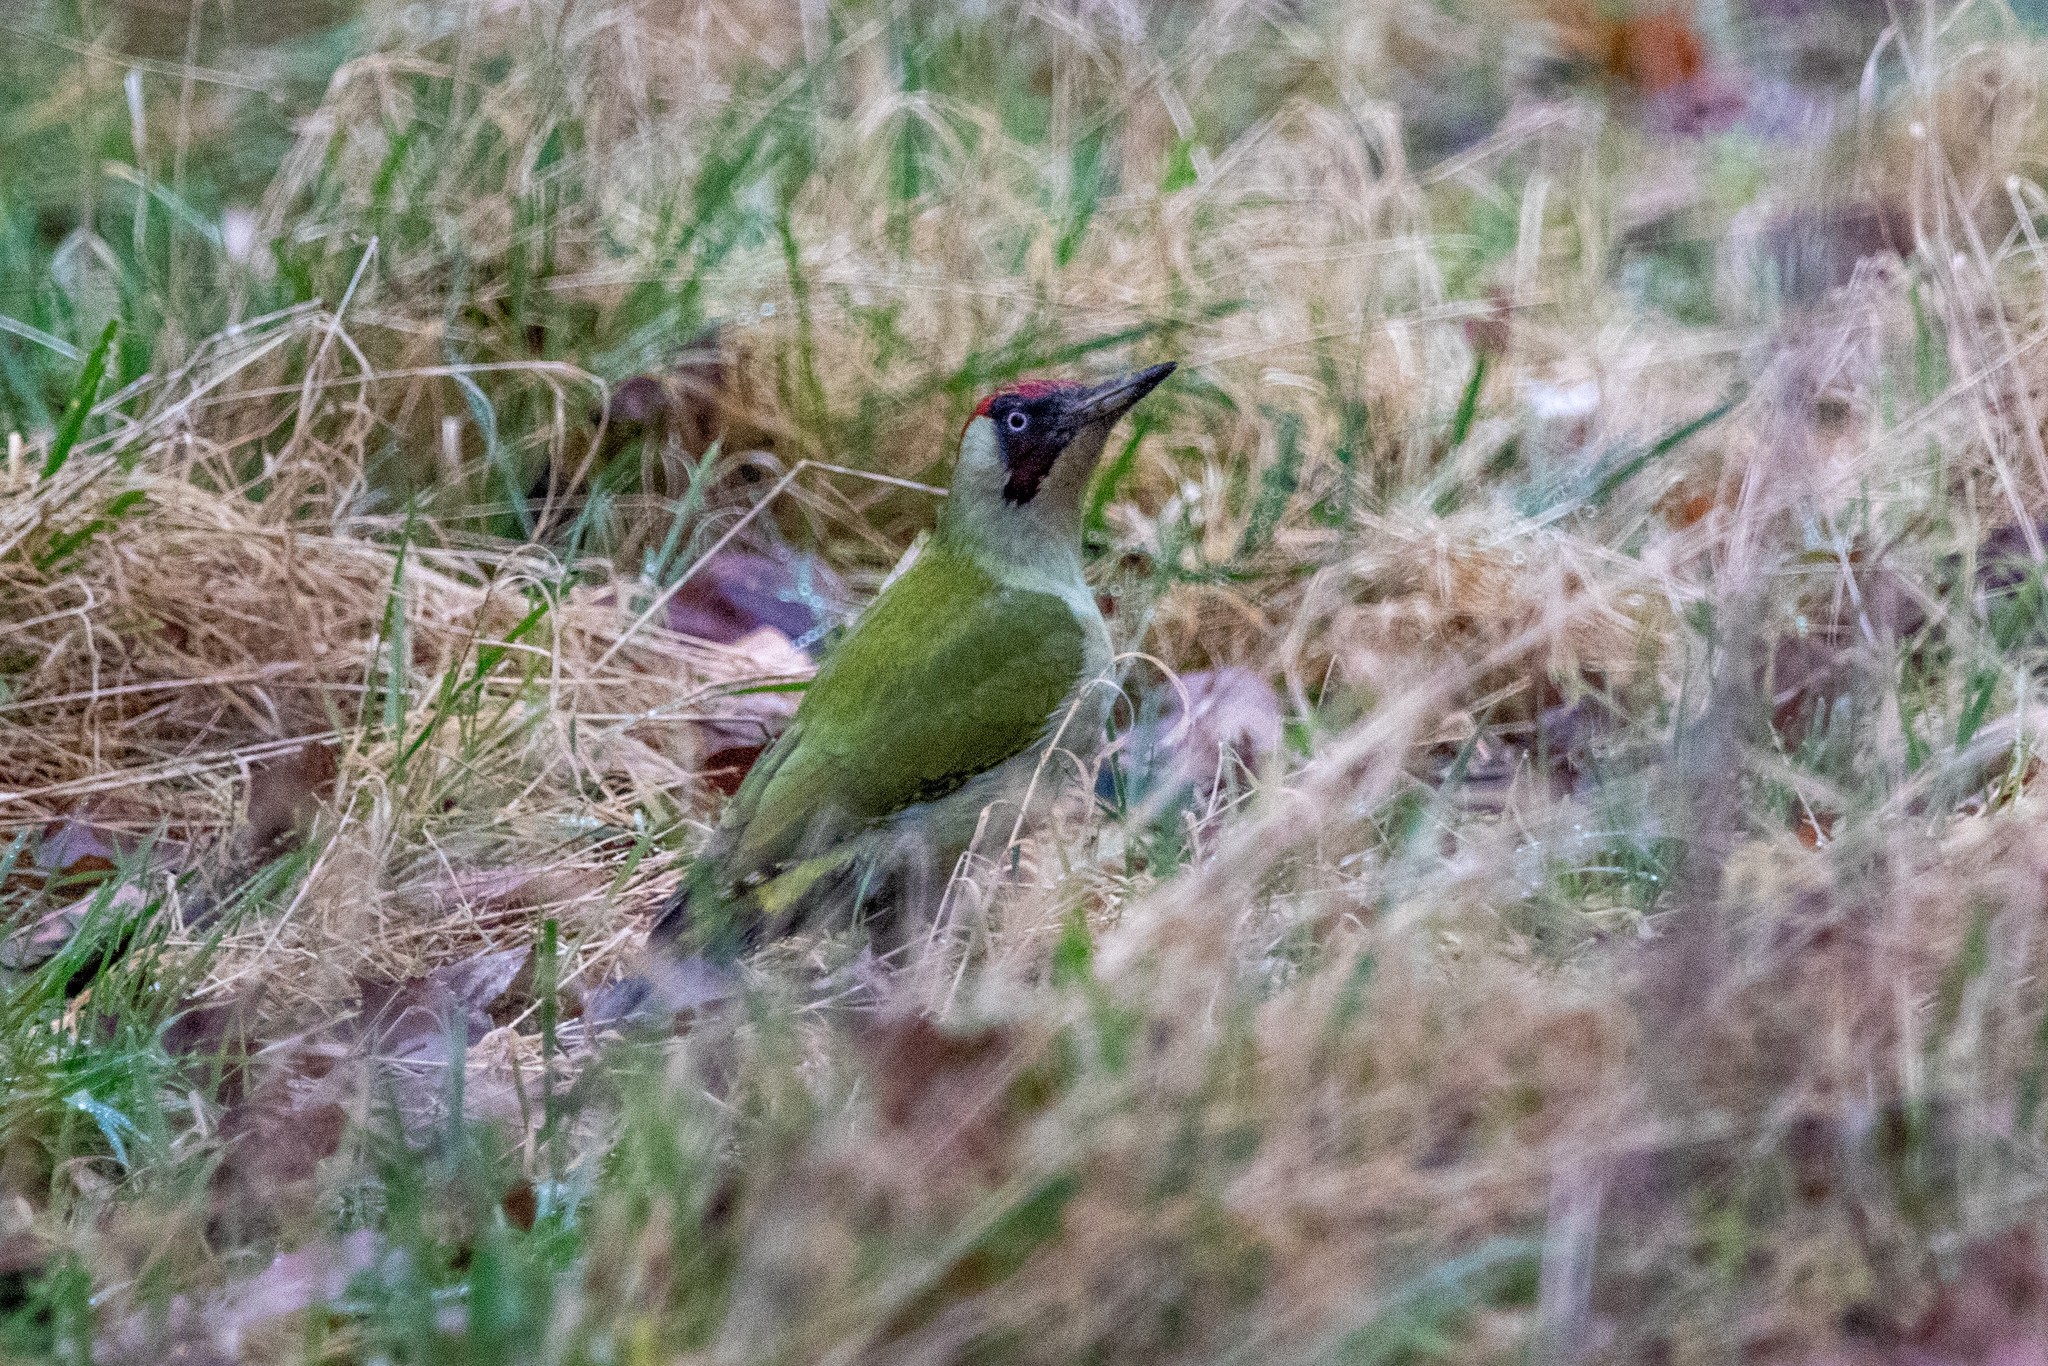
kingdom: Animalia
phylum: Chordata
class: Aves
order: Piciformes
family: Picidae
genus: Picus
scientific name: Picus viridis
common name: European green woodpecker
